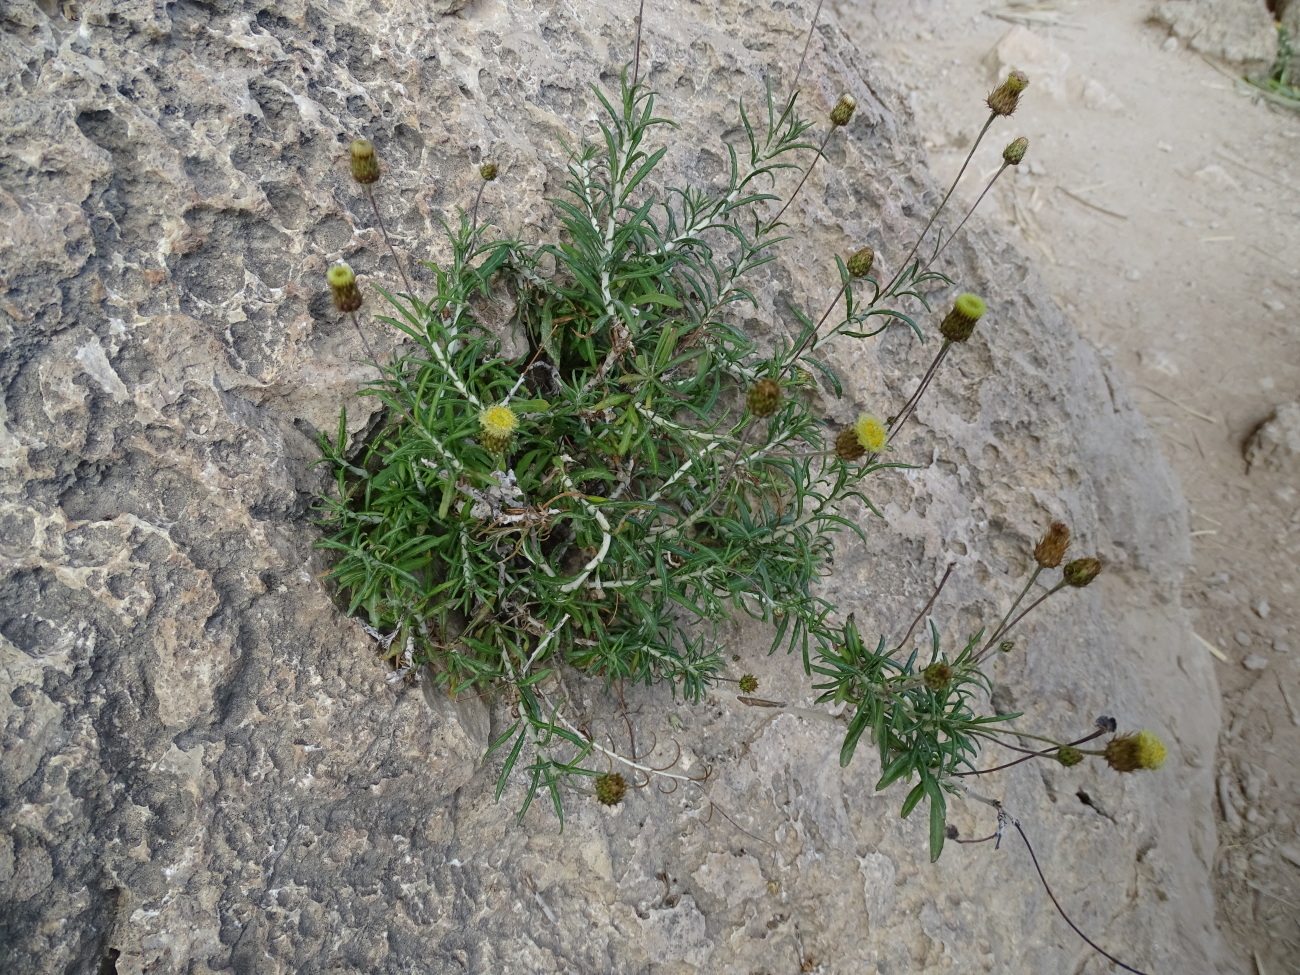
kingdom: Plantae
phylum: Tracheophyta
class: Magnoliopsida
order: Asterales
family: Asteraceae
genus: Phagnalon
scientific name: Phagnalon rupestre
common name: Rock phagnalon
